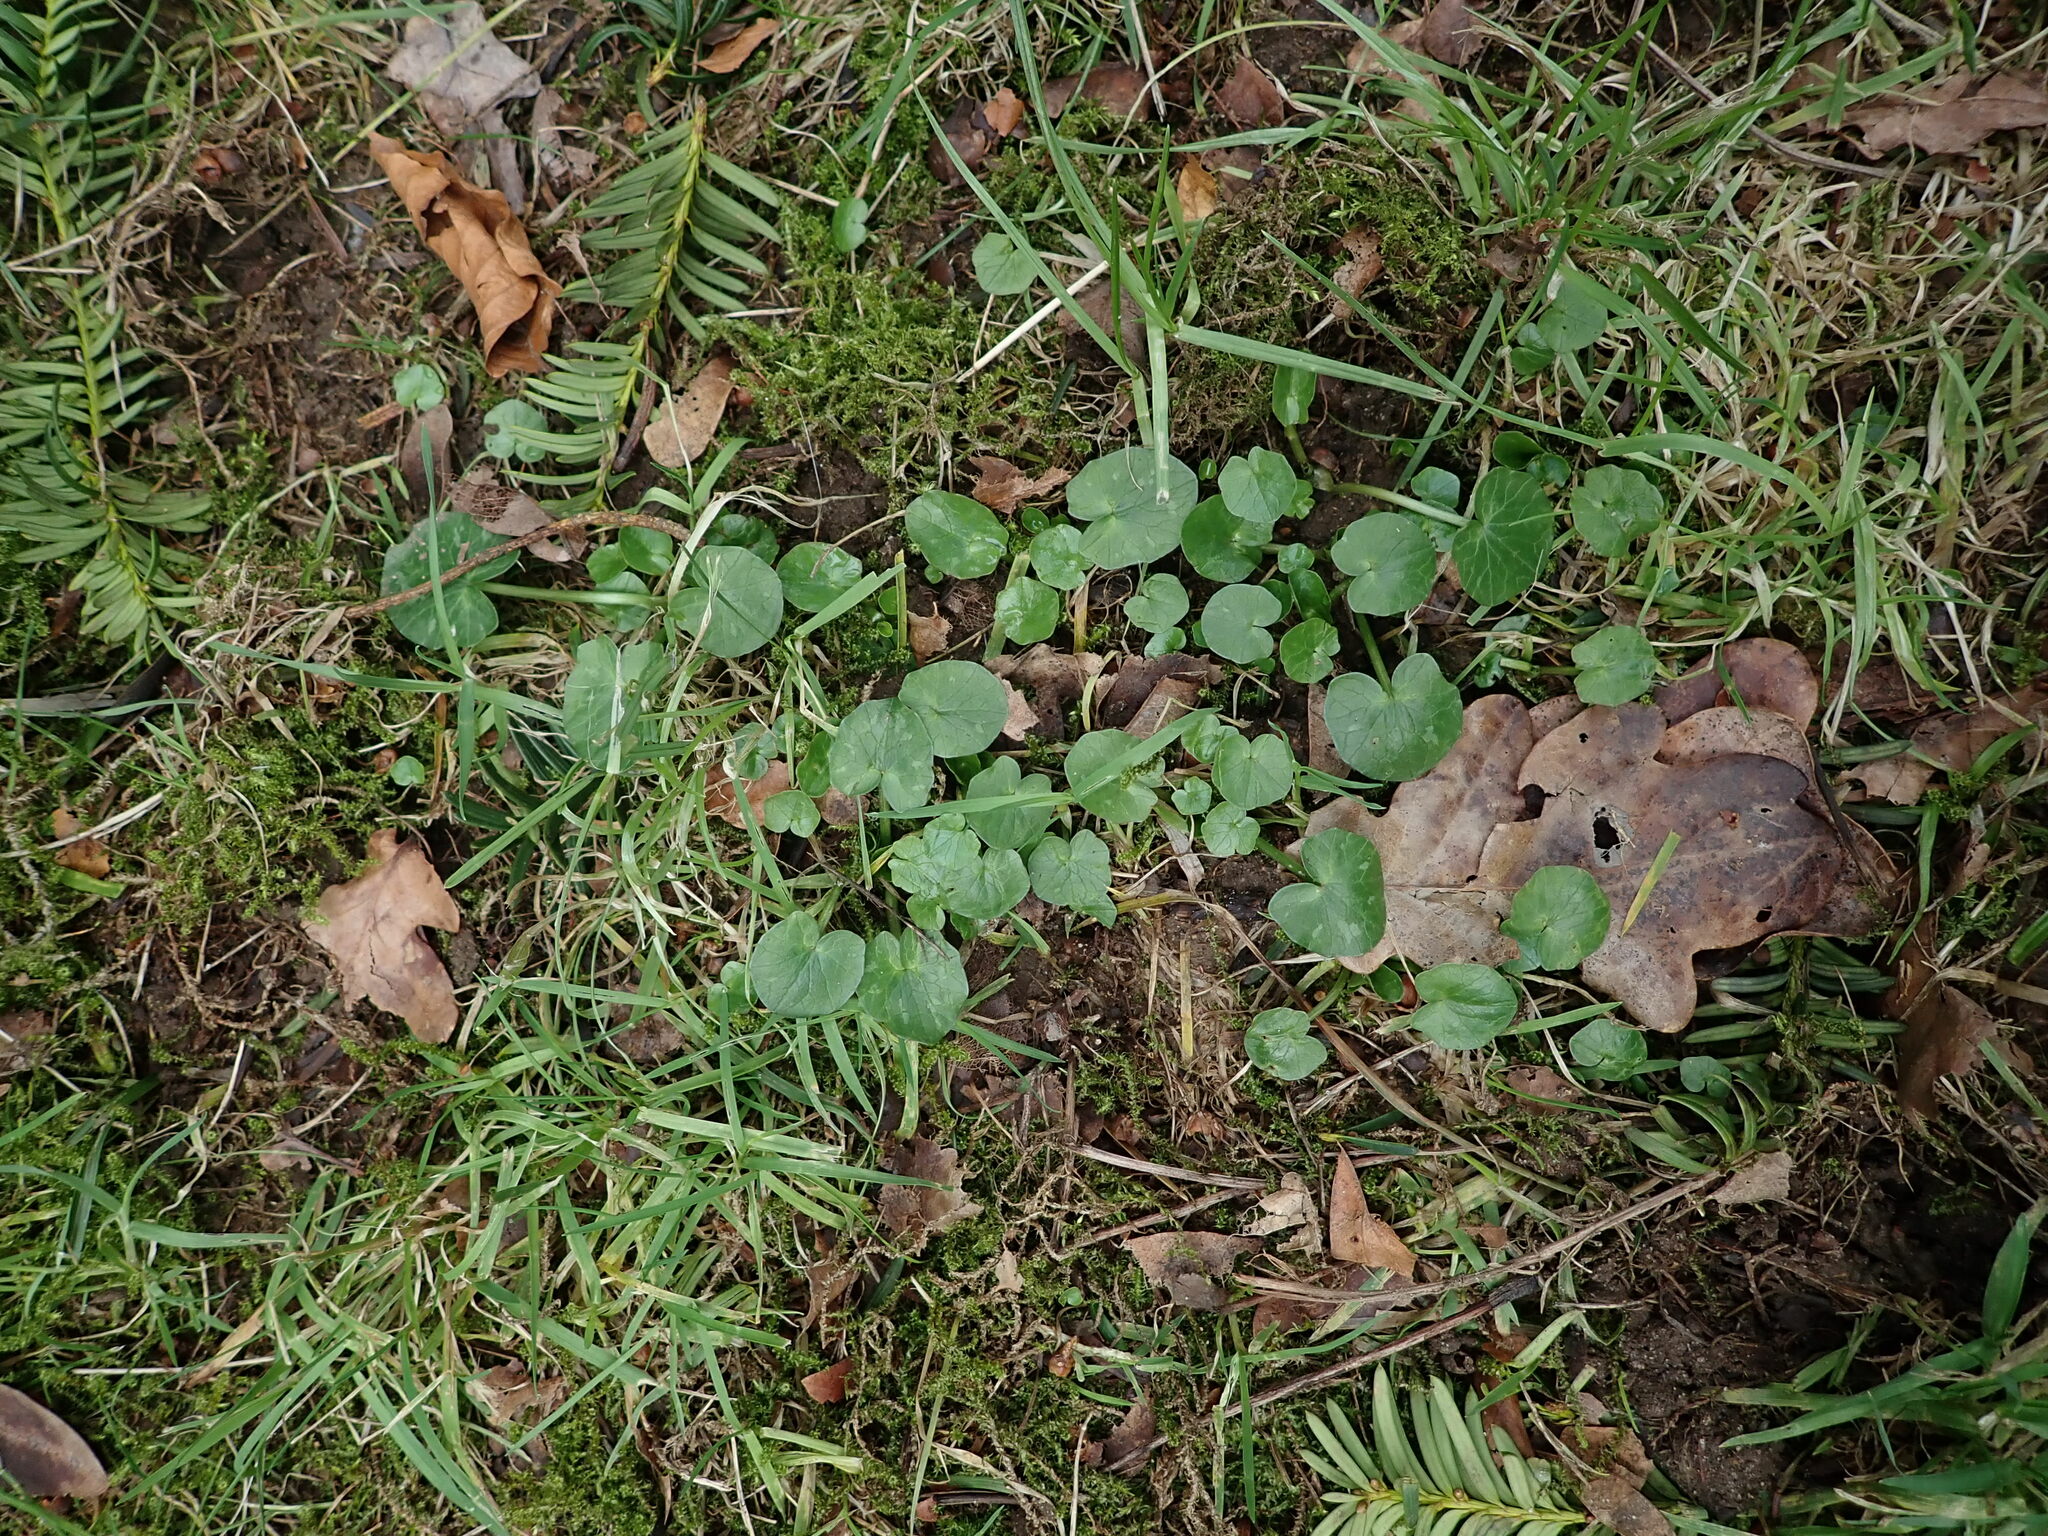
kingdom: Plantae
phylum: Tracheophyta
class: Magnoliopsida
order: Ranunculales
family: Ranunculaceae
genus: Ficaria
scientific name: Ficaria verna
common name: Lesser celandine
